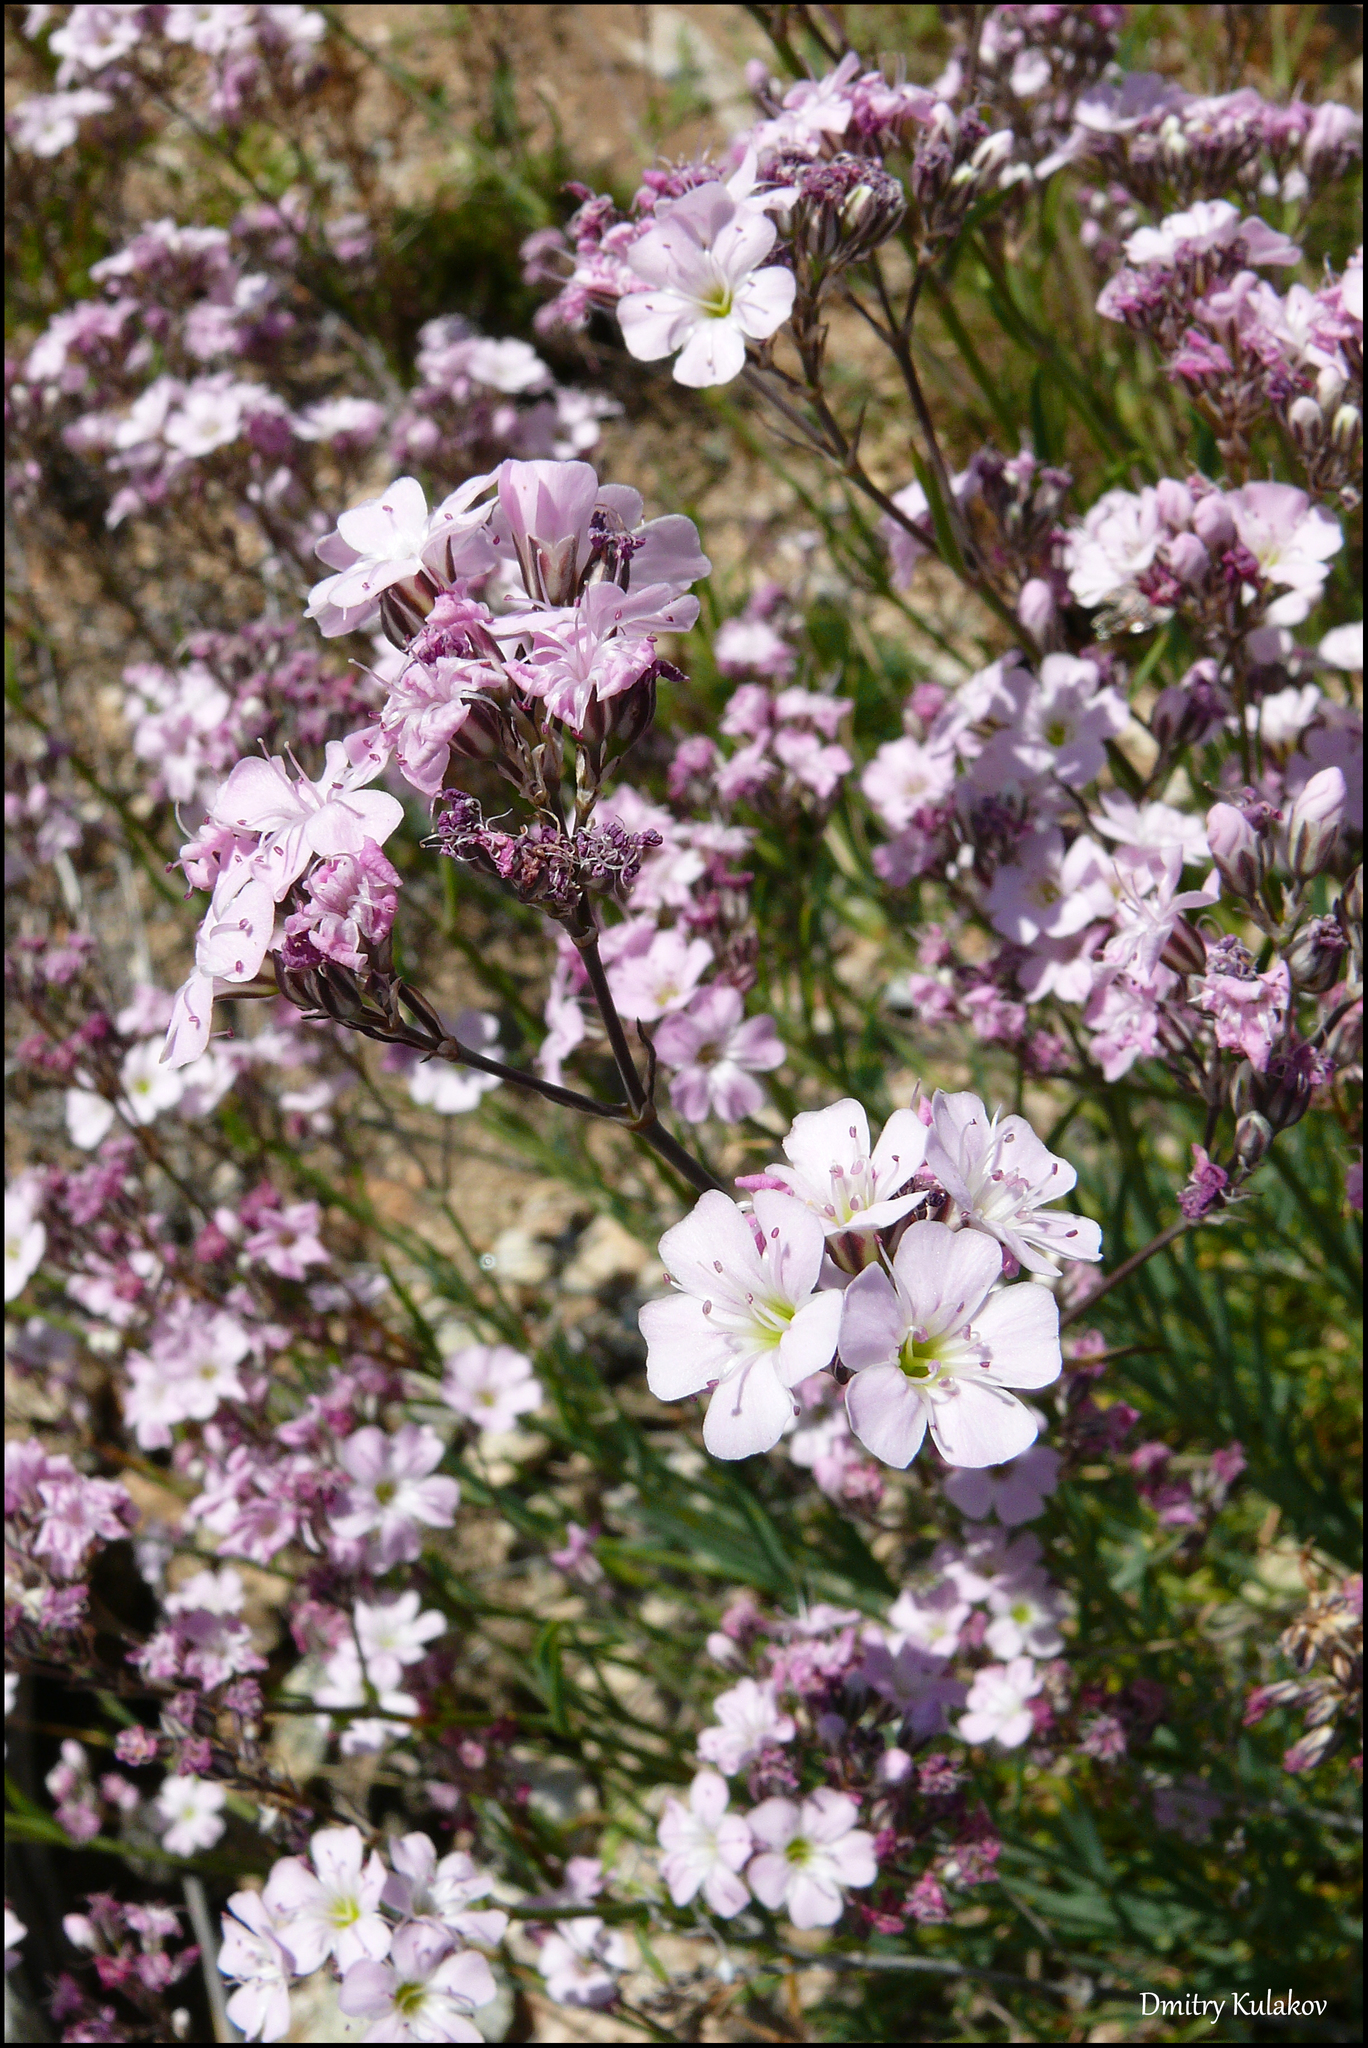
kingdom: Plantae
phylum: Tracheophyta
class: Magnoliopsida
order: Caryophyllales
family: Caryophyllaceae
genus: Gypsophila
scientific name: Gypsophila patrinii
